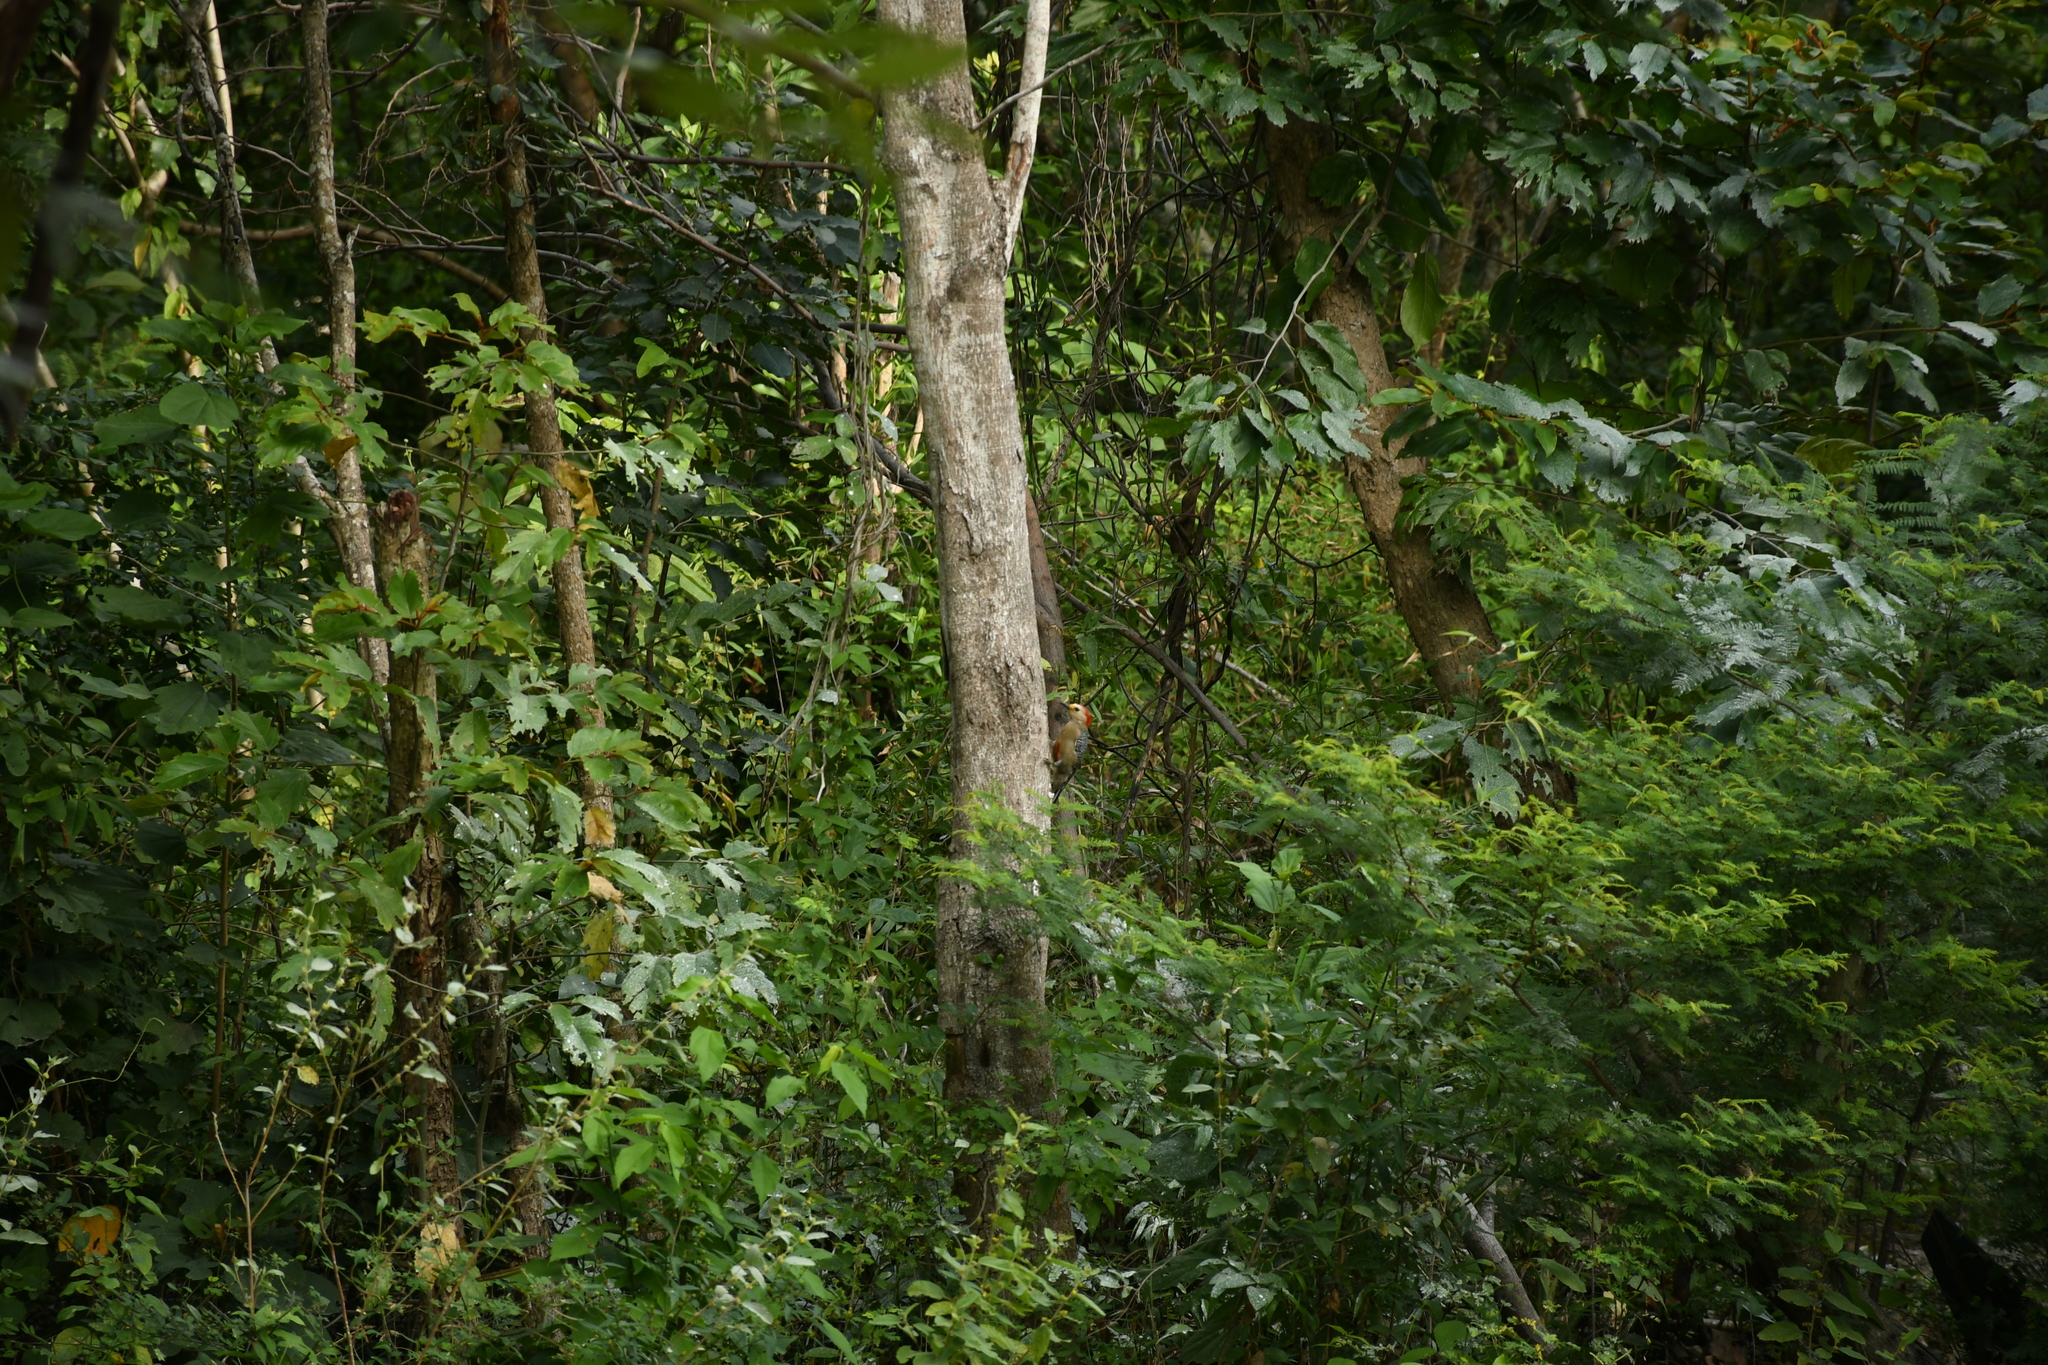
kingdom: Animalia
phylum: Chordata
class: Aves
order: Piciformes
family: Picidae
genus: Melanerpes
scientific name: Melanerpes pygmaeus
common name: Yucatan woodpecker
